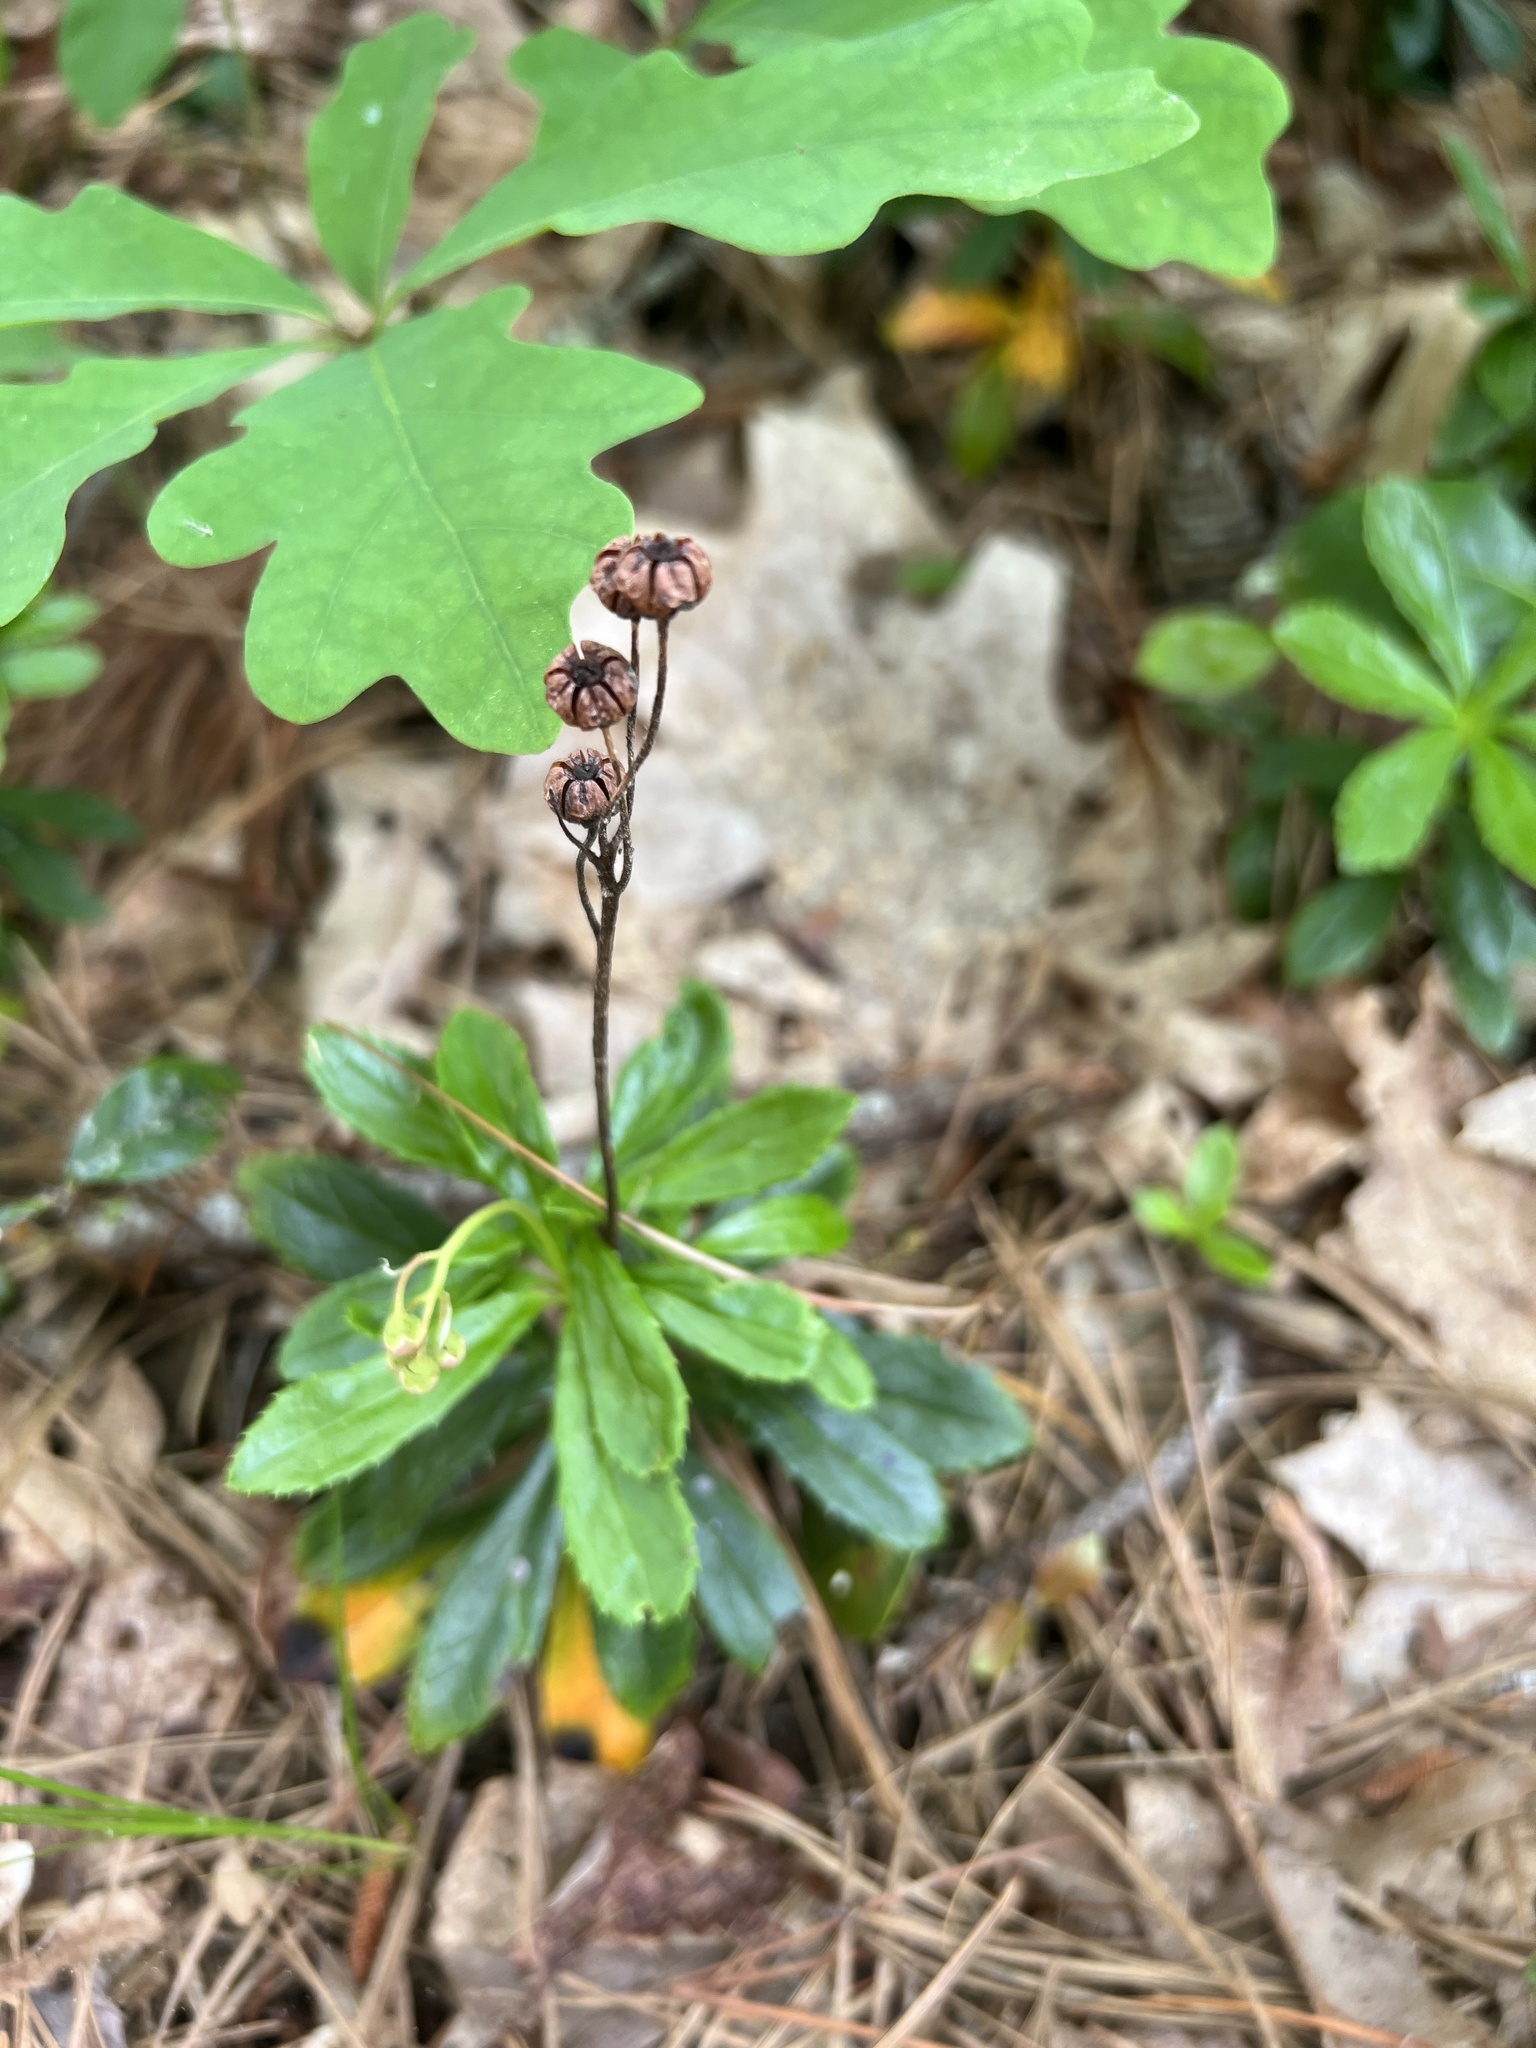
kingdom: Plantae
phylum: Tracheophyta
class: Magnoliopsida
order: Ericales
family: Ericaceae
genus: Chimaphila
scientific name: Chimaphila umbellata
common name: Pipsissewa
